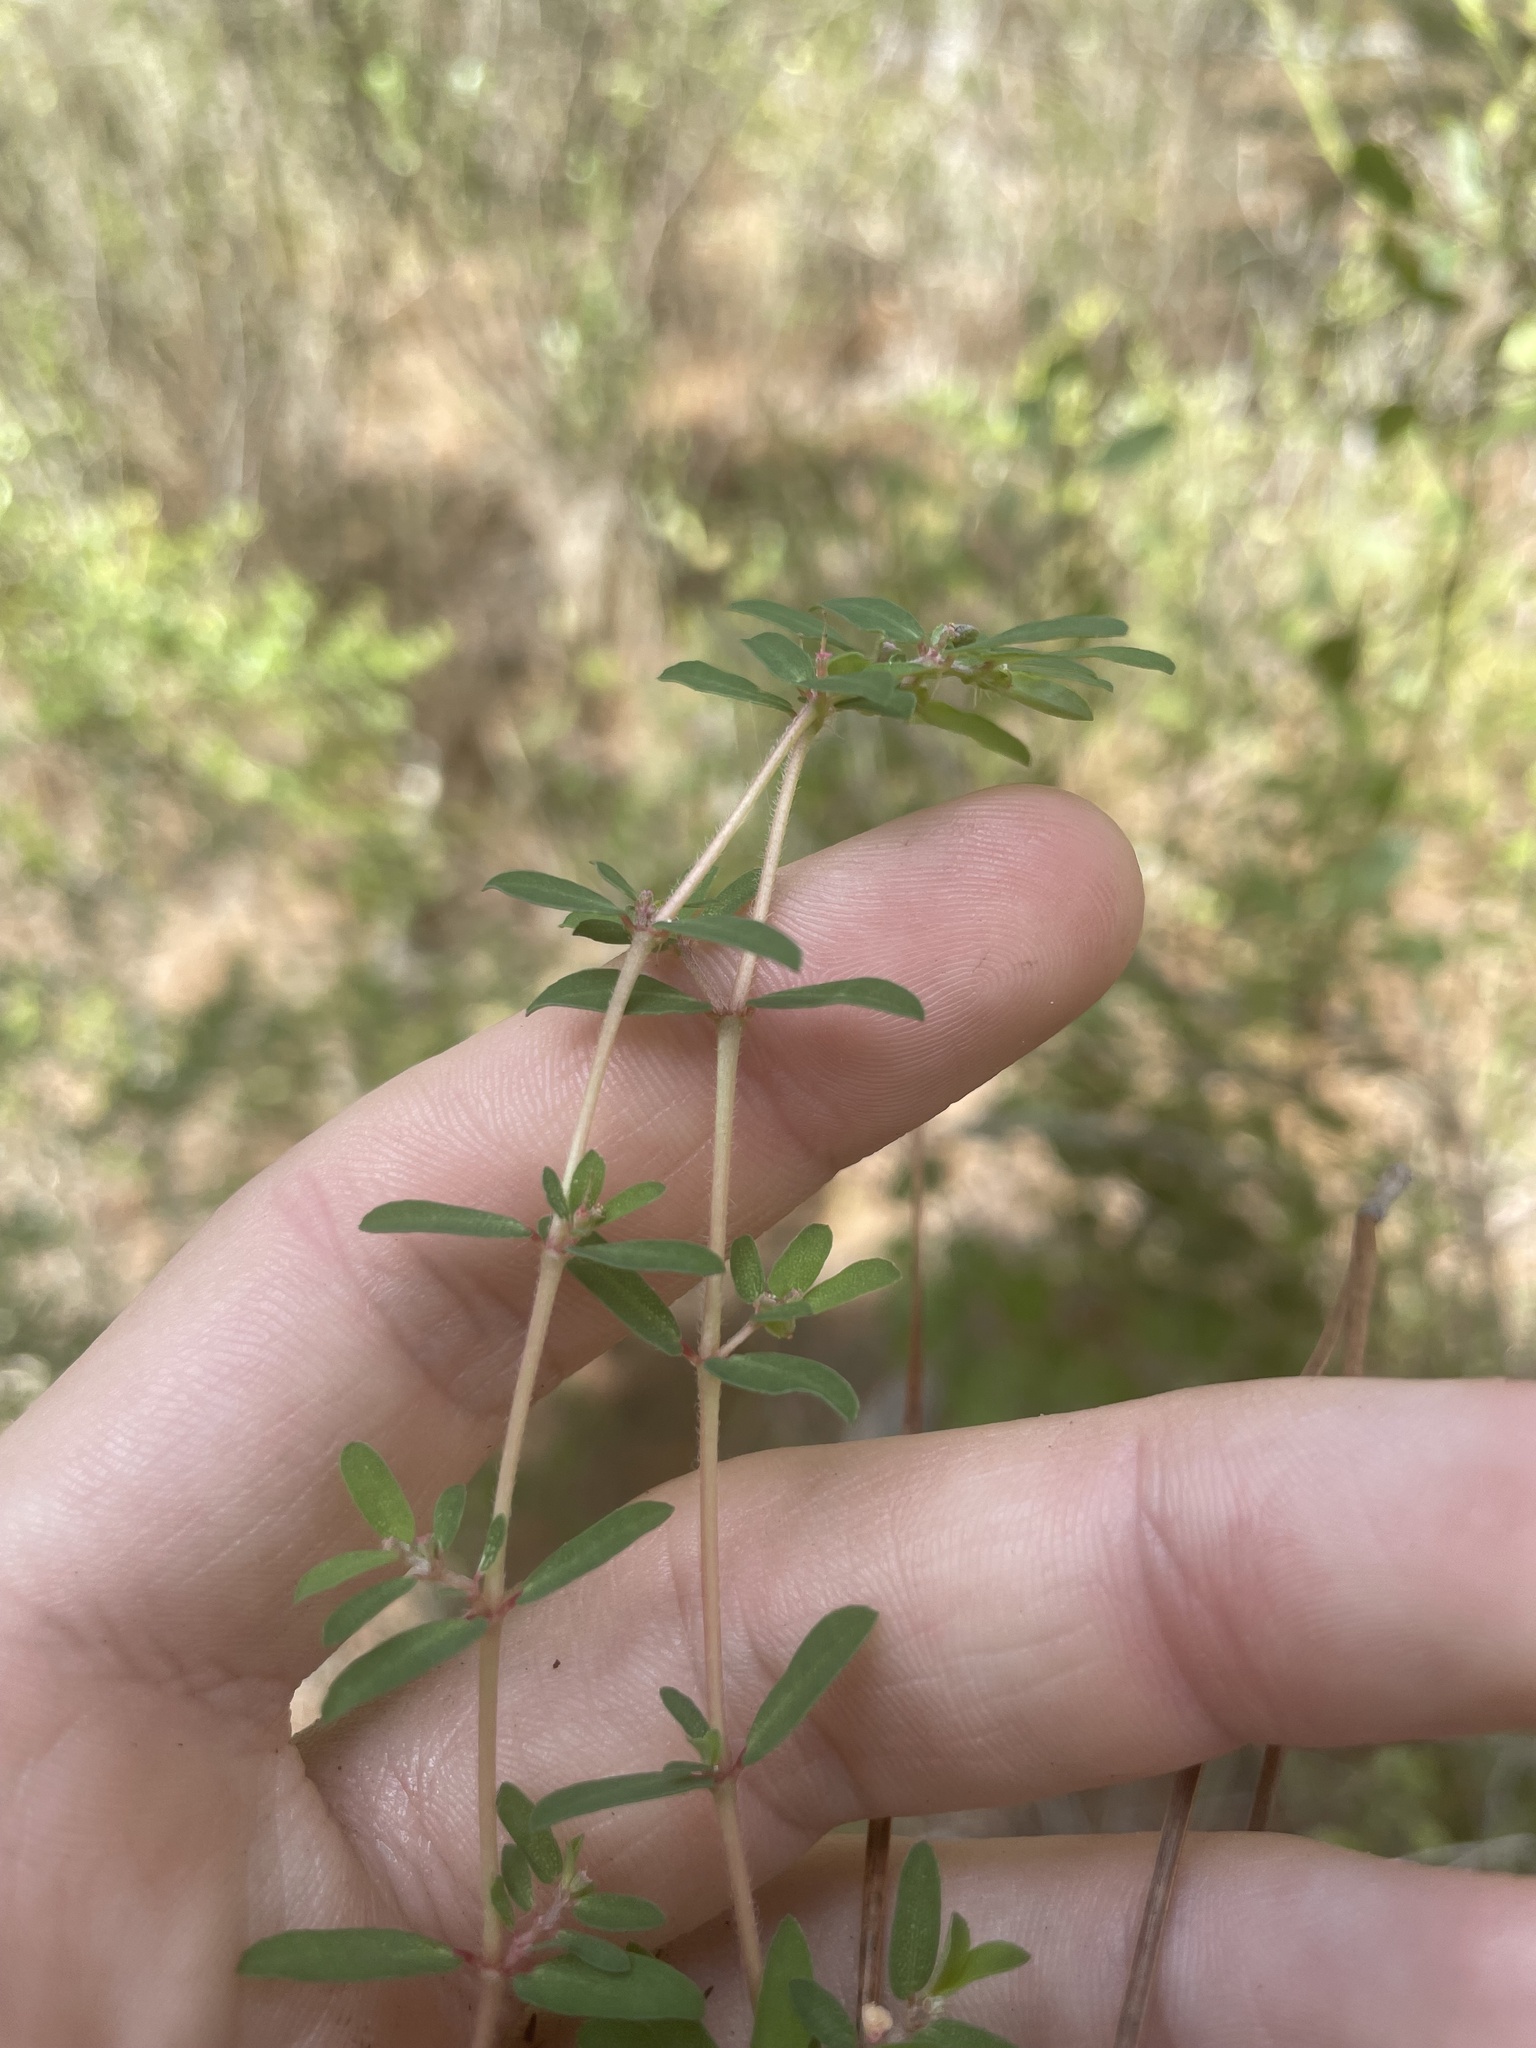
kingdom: Plantae
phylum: Tracheophyta
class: Magnoliopsida
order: Malpighiales
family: Euphorbiaceae
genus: Euphorbia
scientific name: Euphorbia maculata
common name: Spotted spurge
